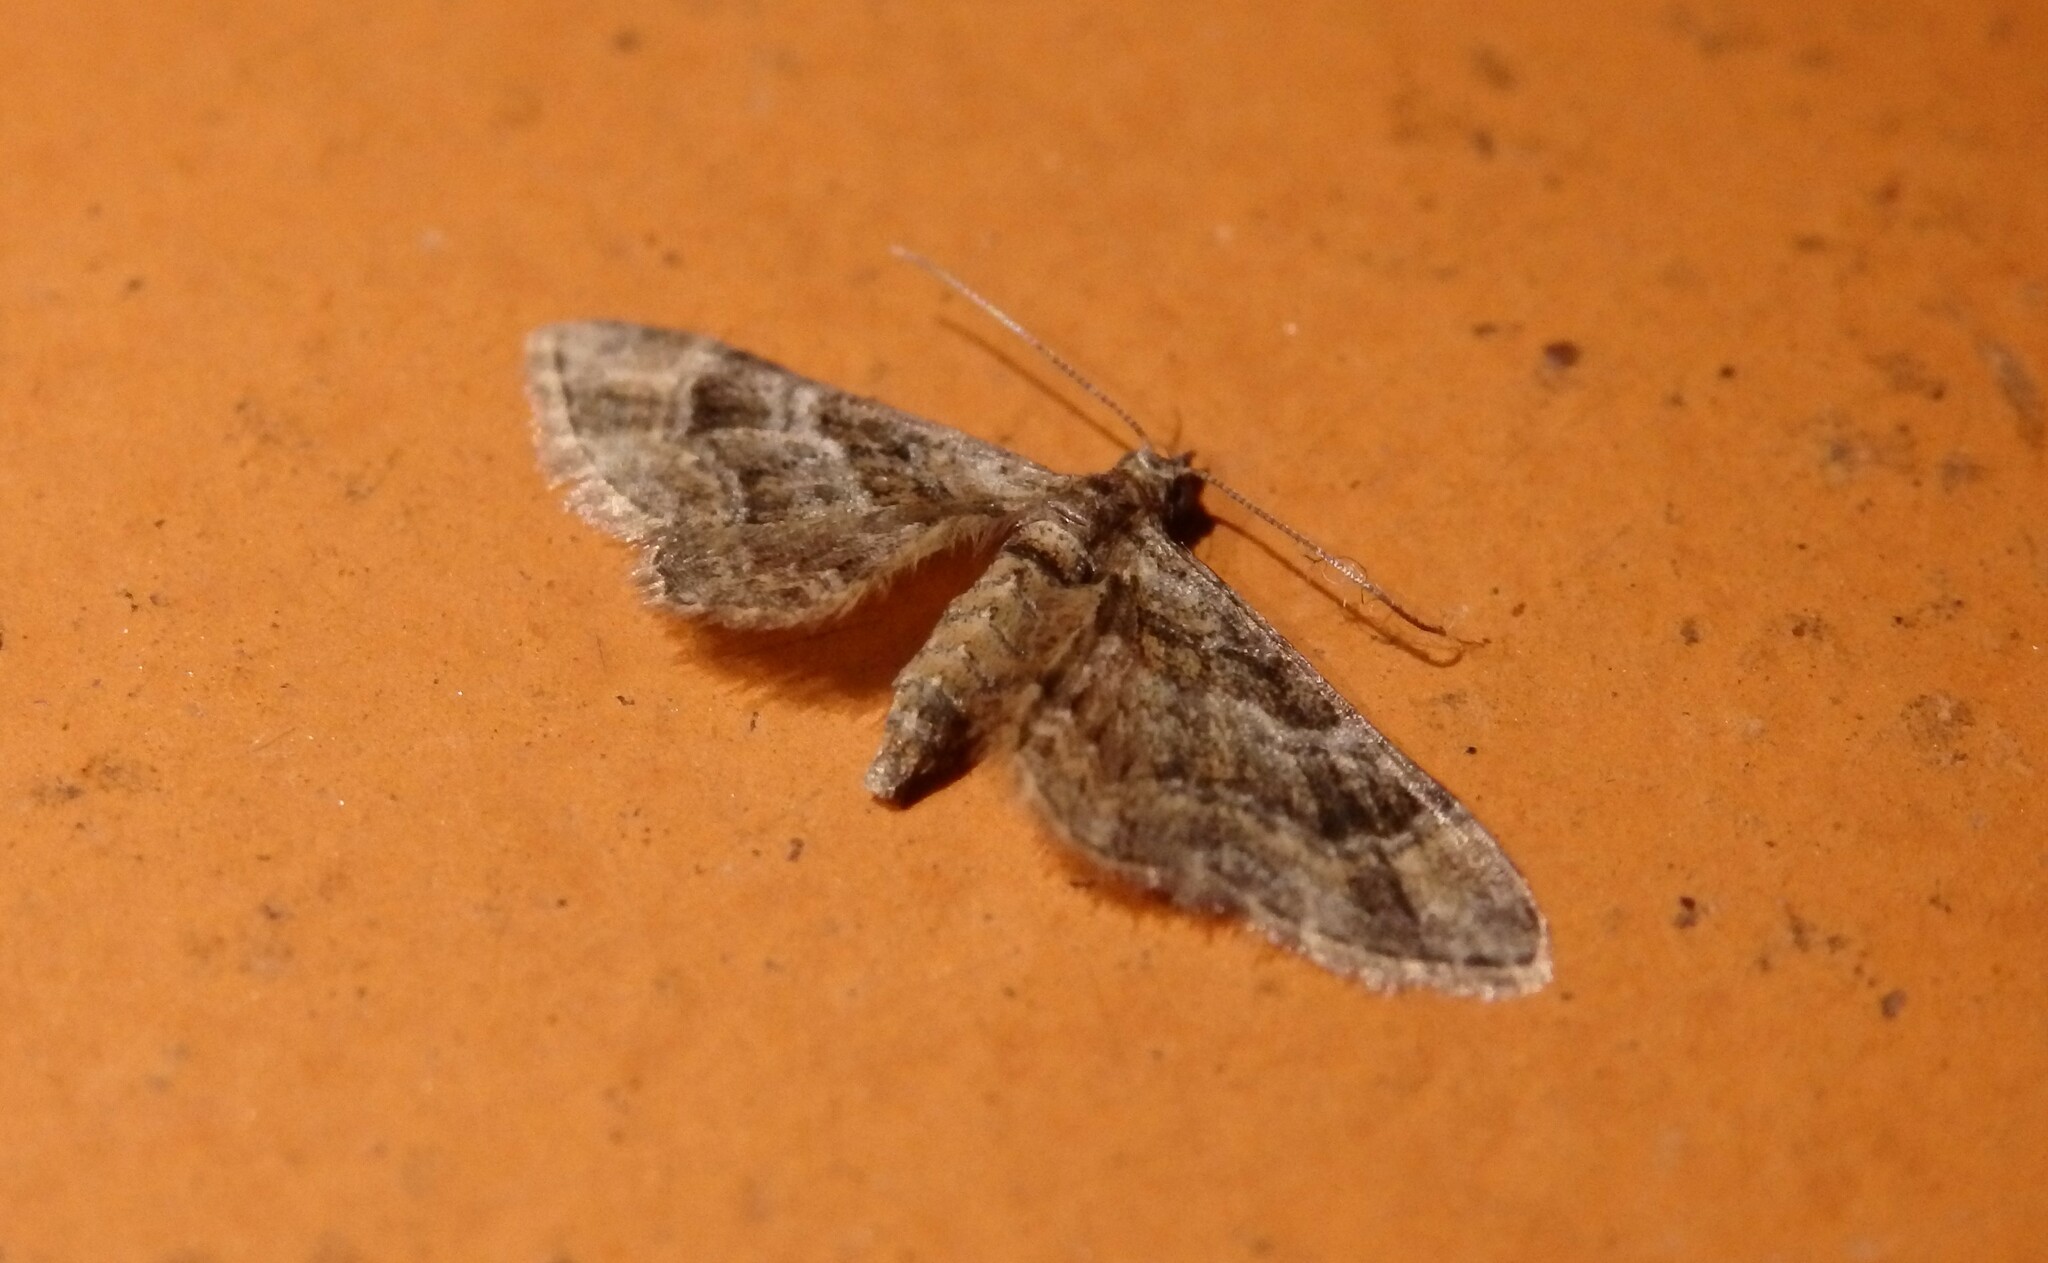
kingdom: Animalia
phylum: Arthropoda
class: Insecta
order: Lepidoptera
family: Geometridae
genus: Gymnoscelis
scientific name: Gymnoscelis rufifasciata
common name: Double-striped pug
